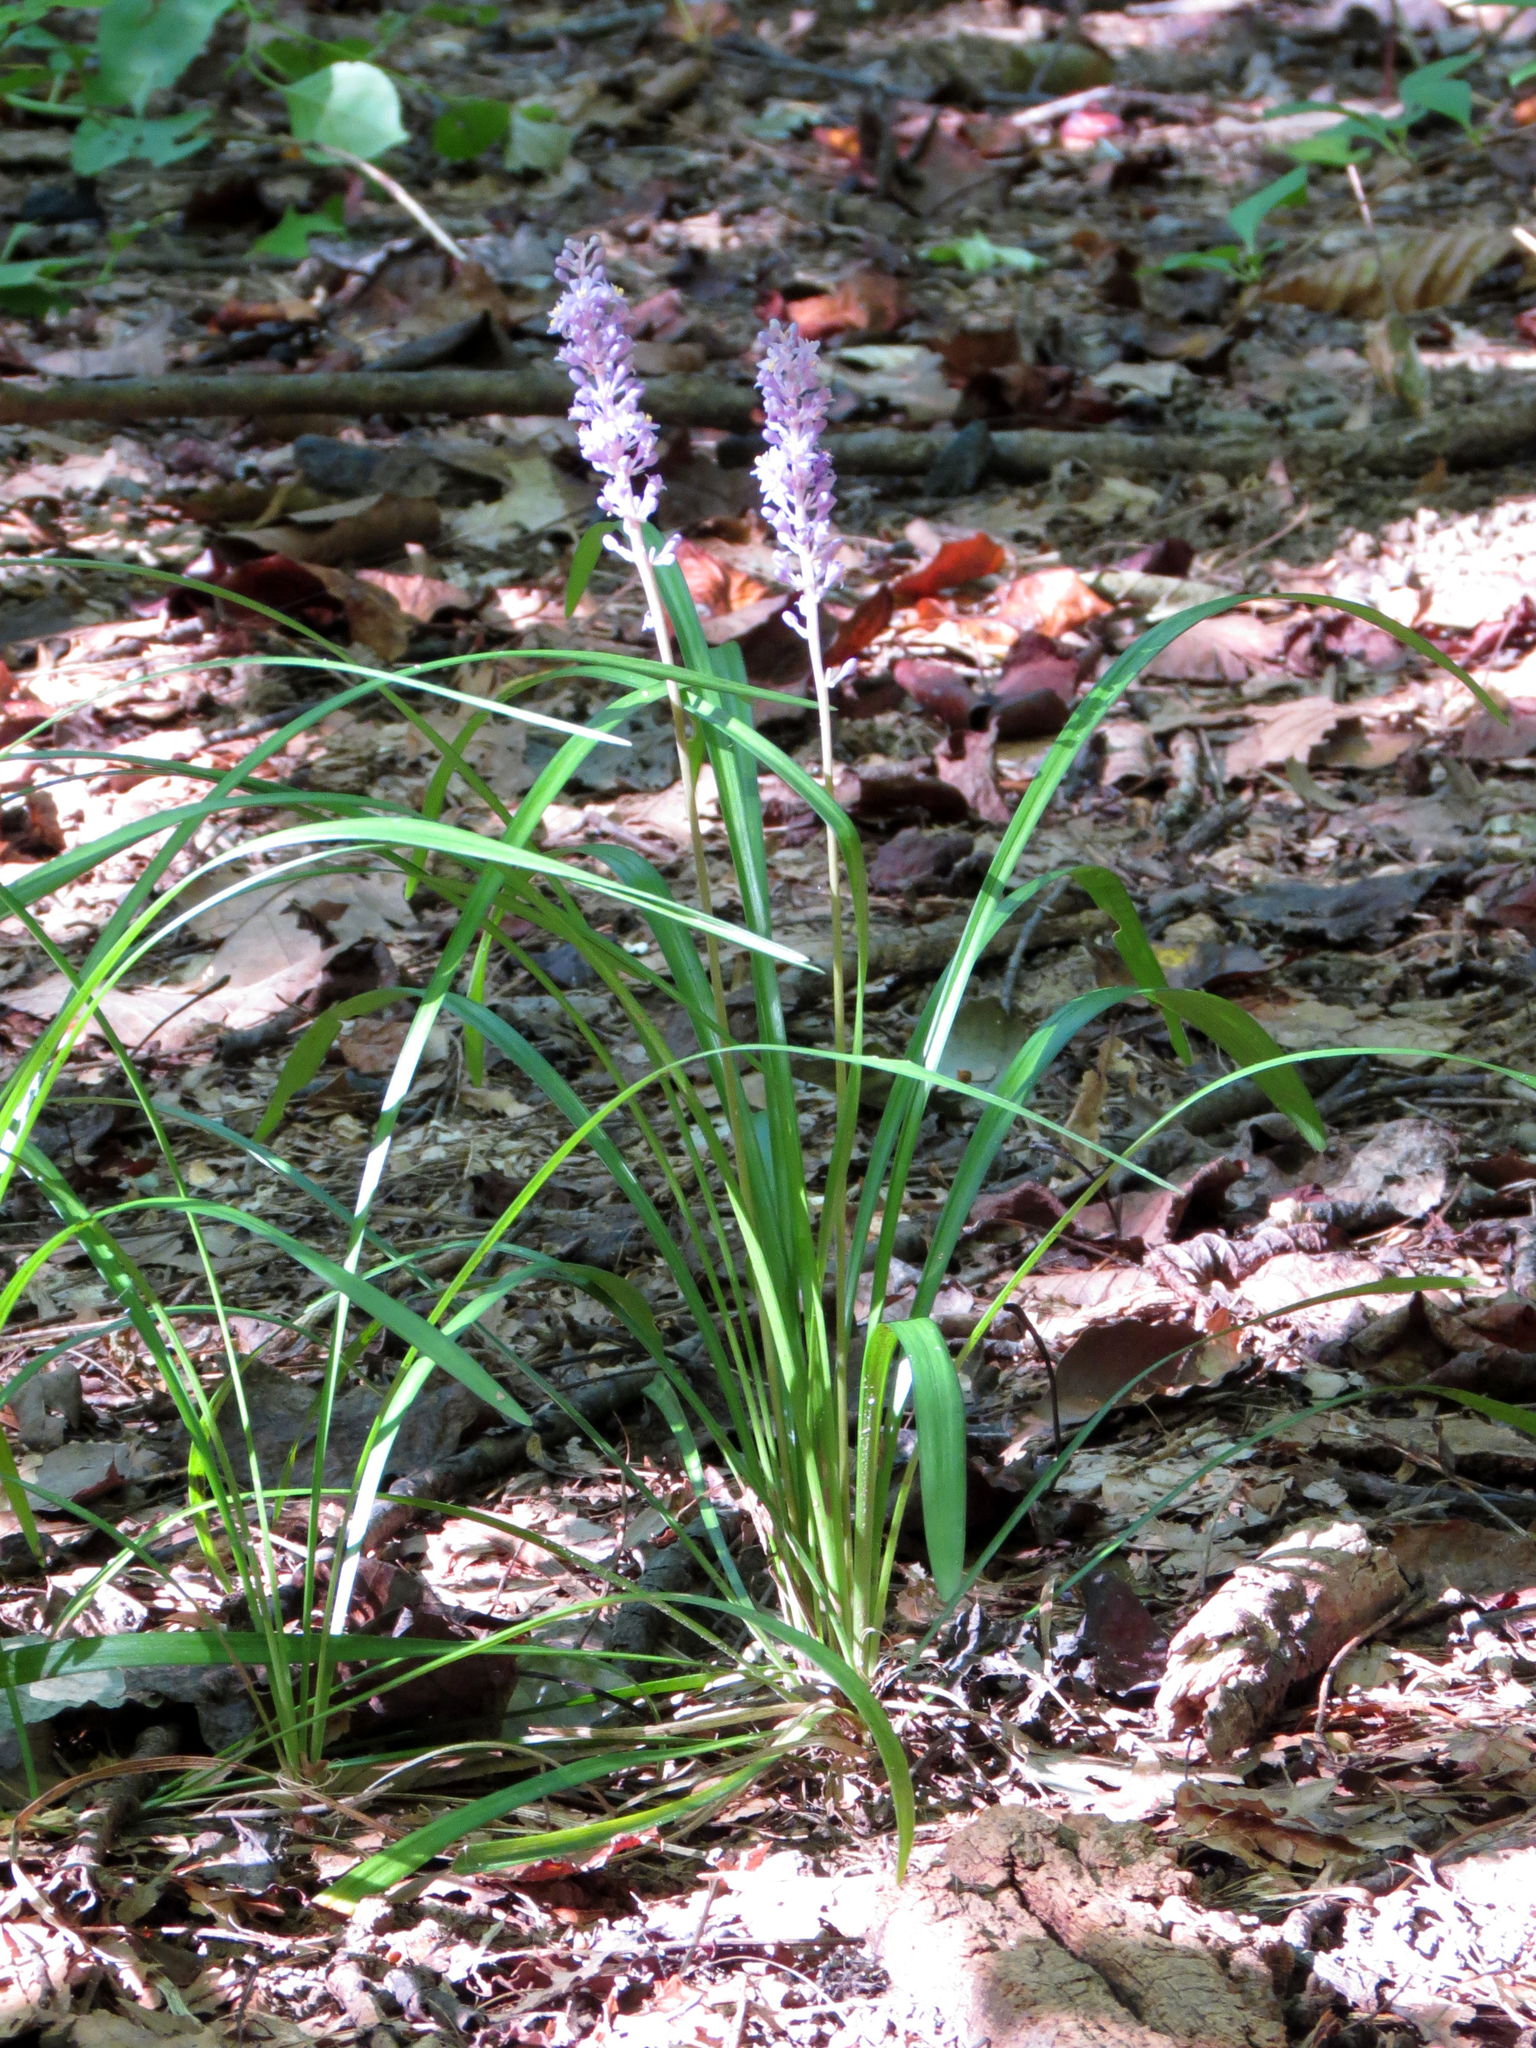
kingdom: Plantae
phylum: Tracheophyta
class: Liliopsida
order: Asparagales
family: Asparagaceae
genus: Liriope
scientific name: Liriope muscari
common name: Big blue lilyturf
